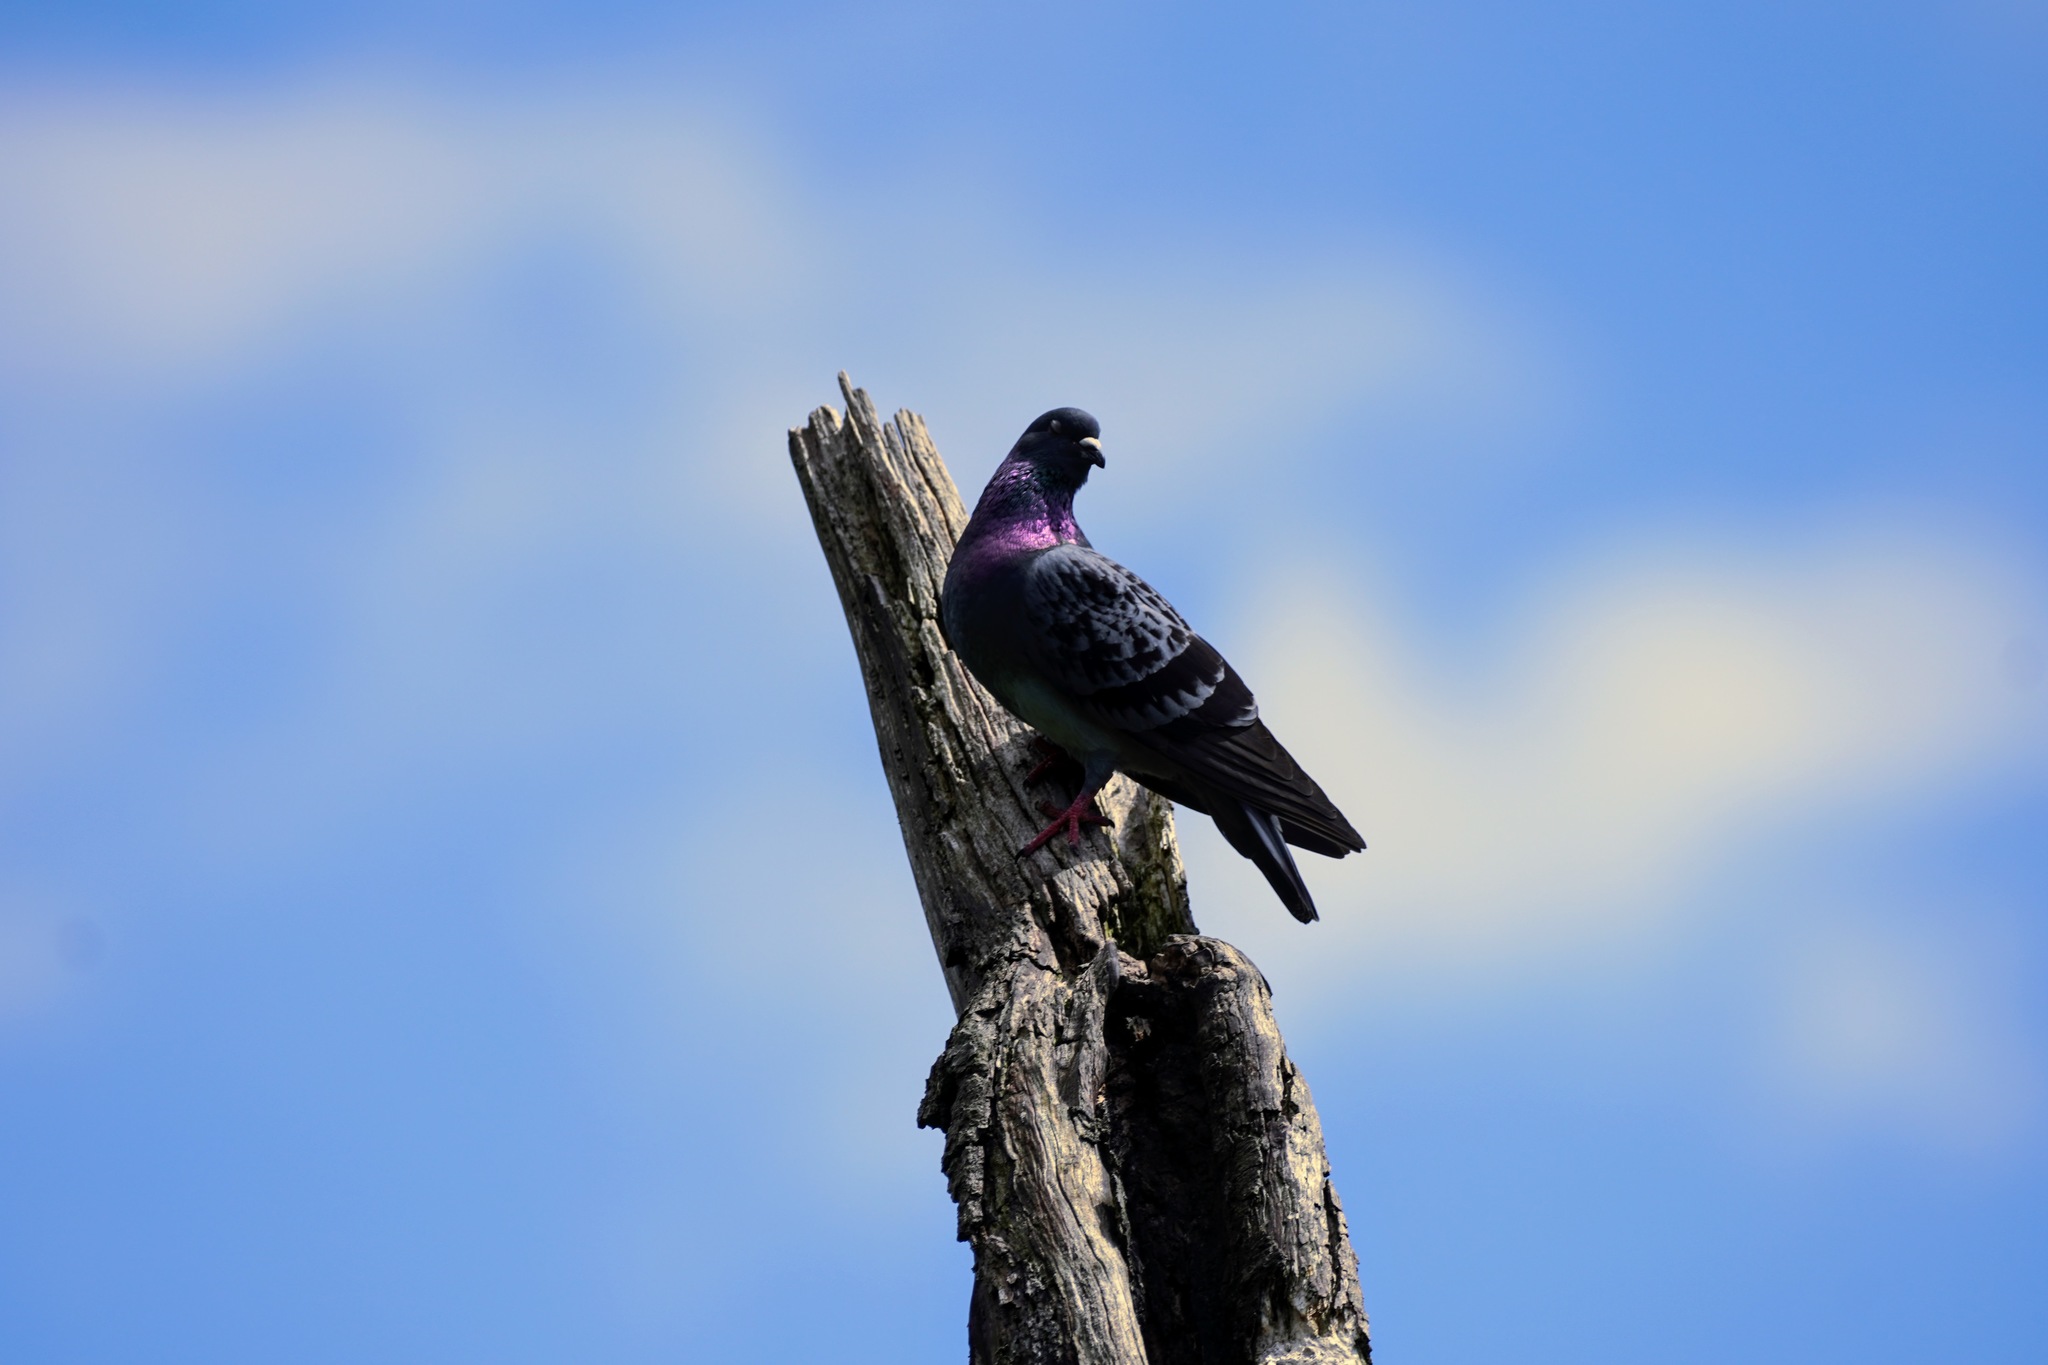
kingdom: Animalia
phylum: Chordata
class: Aves
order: Columbiformes
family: Columbidae
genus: Columba
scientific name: Columba livia
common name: Rock pigeon
